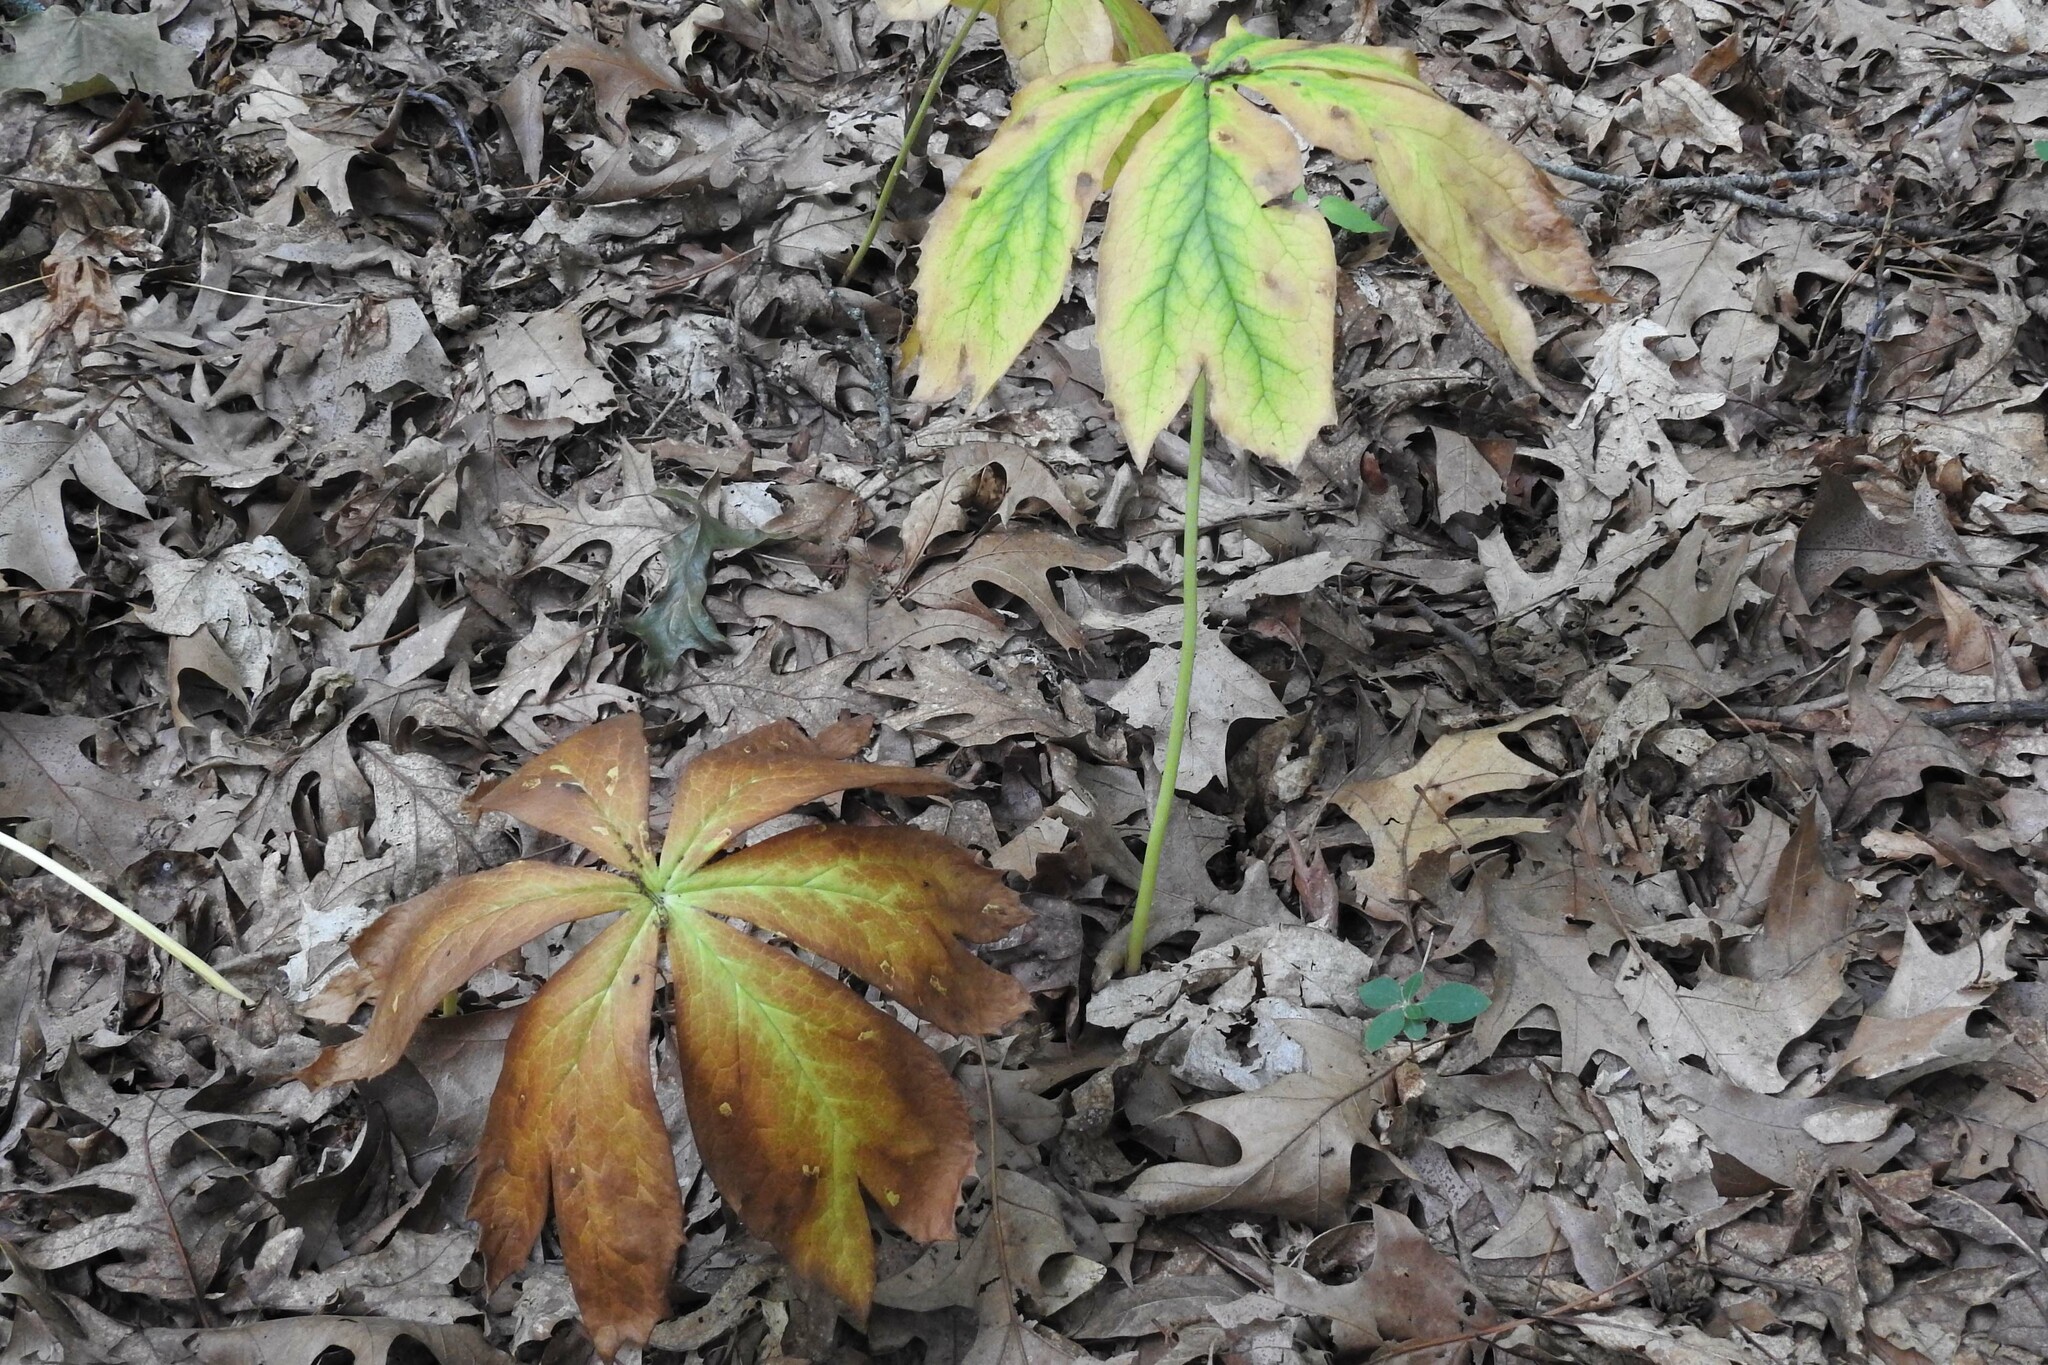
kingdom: Plantae
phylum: Tracheophyta
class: Magnoliopsida
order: Ranunculales
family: Berberidaceae
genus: Podophyllum
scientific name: Podophyllum peltatum
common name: Wild mandrake
